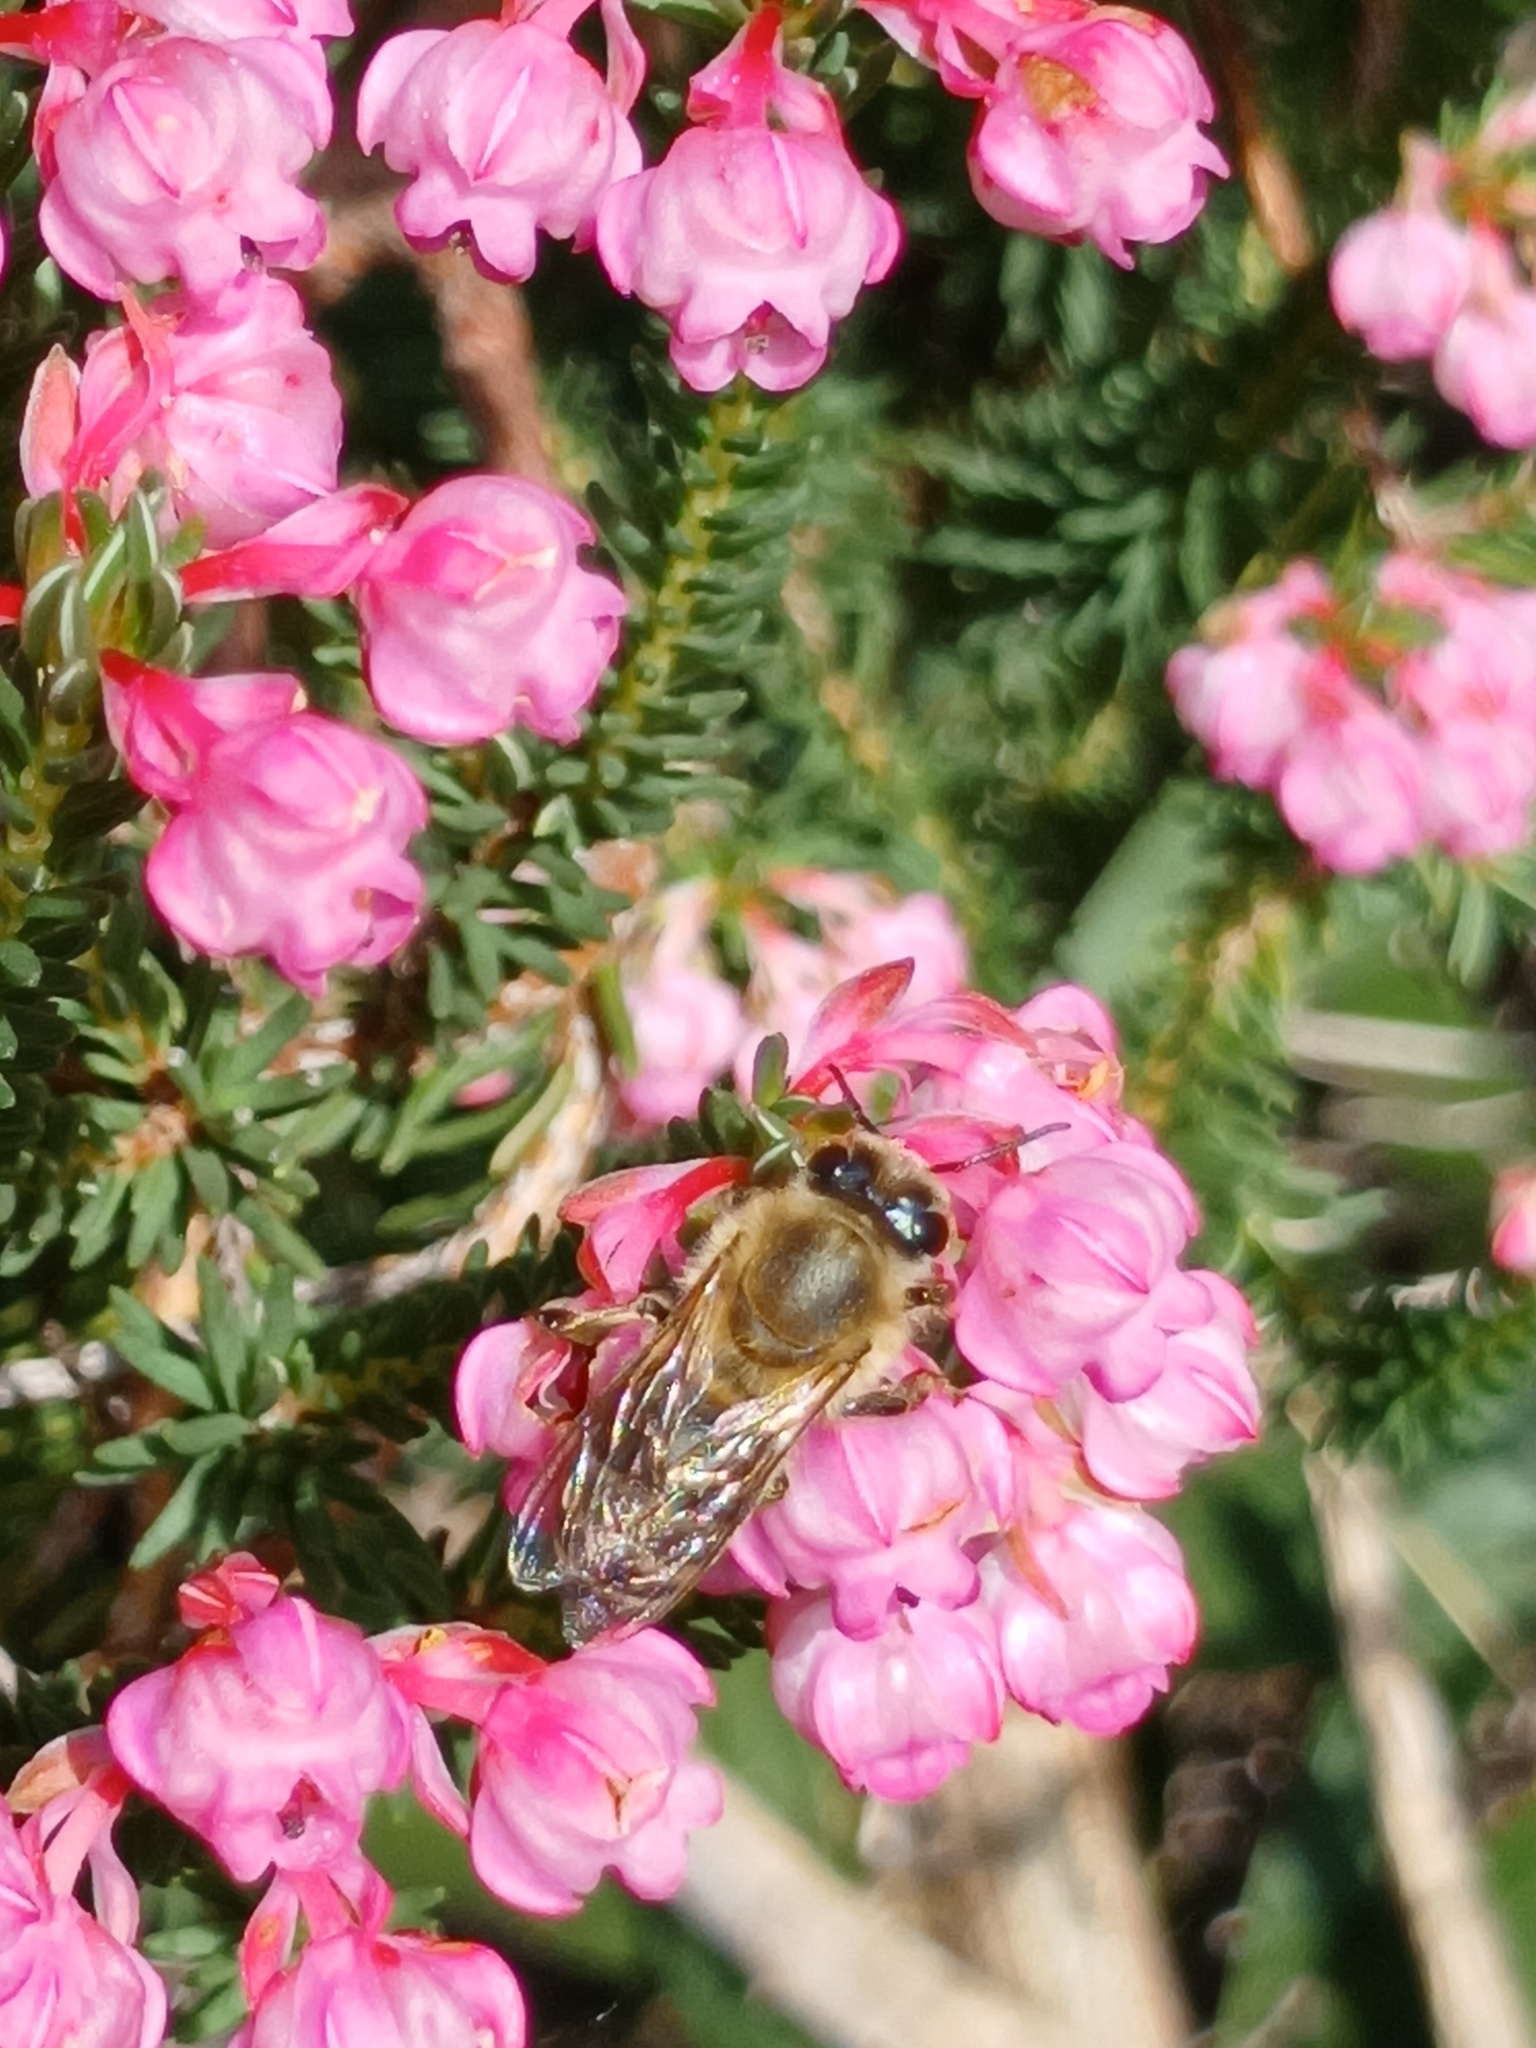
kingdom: Plantae
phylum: Tracheophyta
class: Magnoliopsida
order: Ericales
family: Ericaceae
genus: Erica
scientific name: Erica baccans
